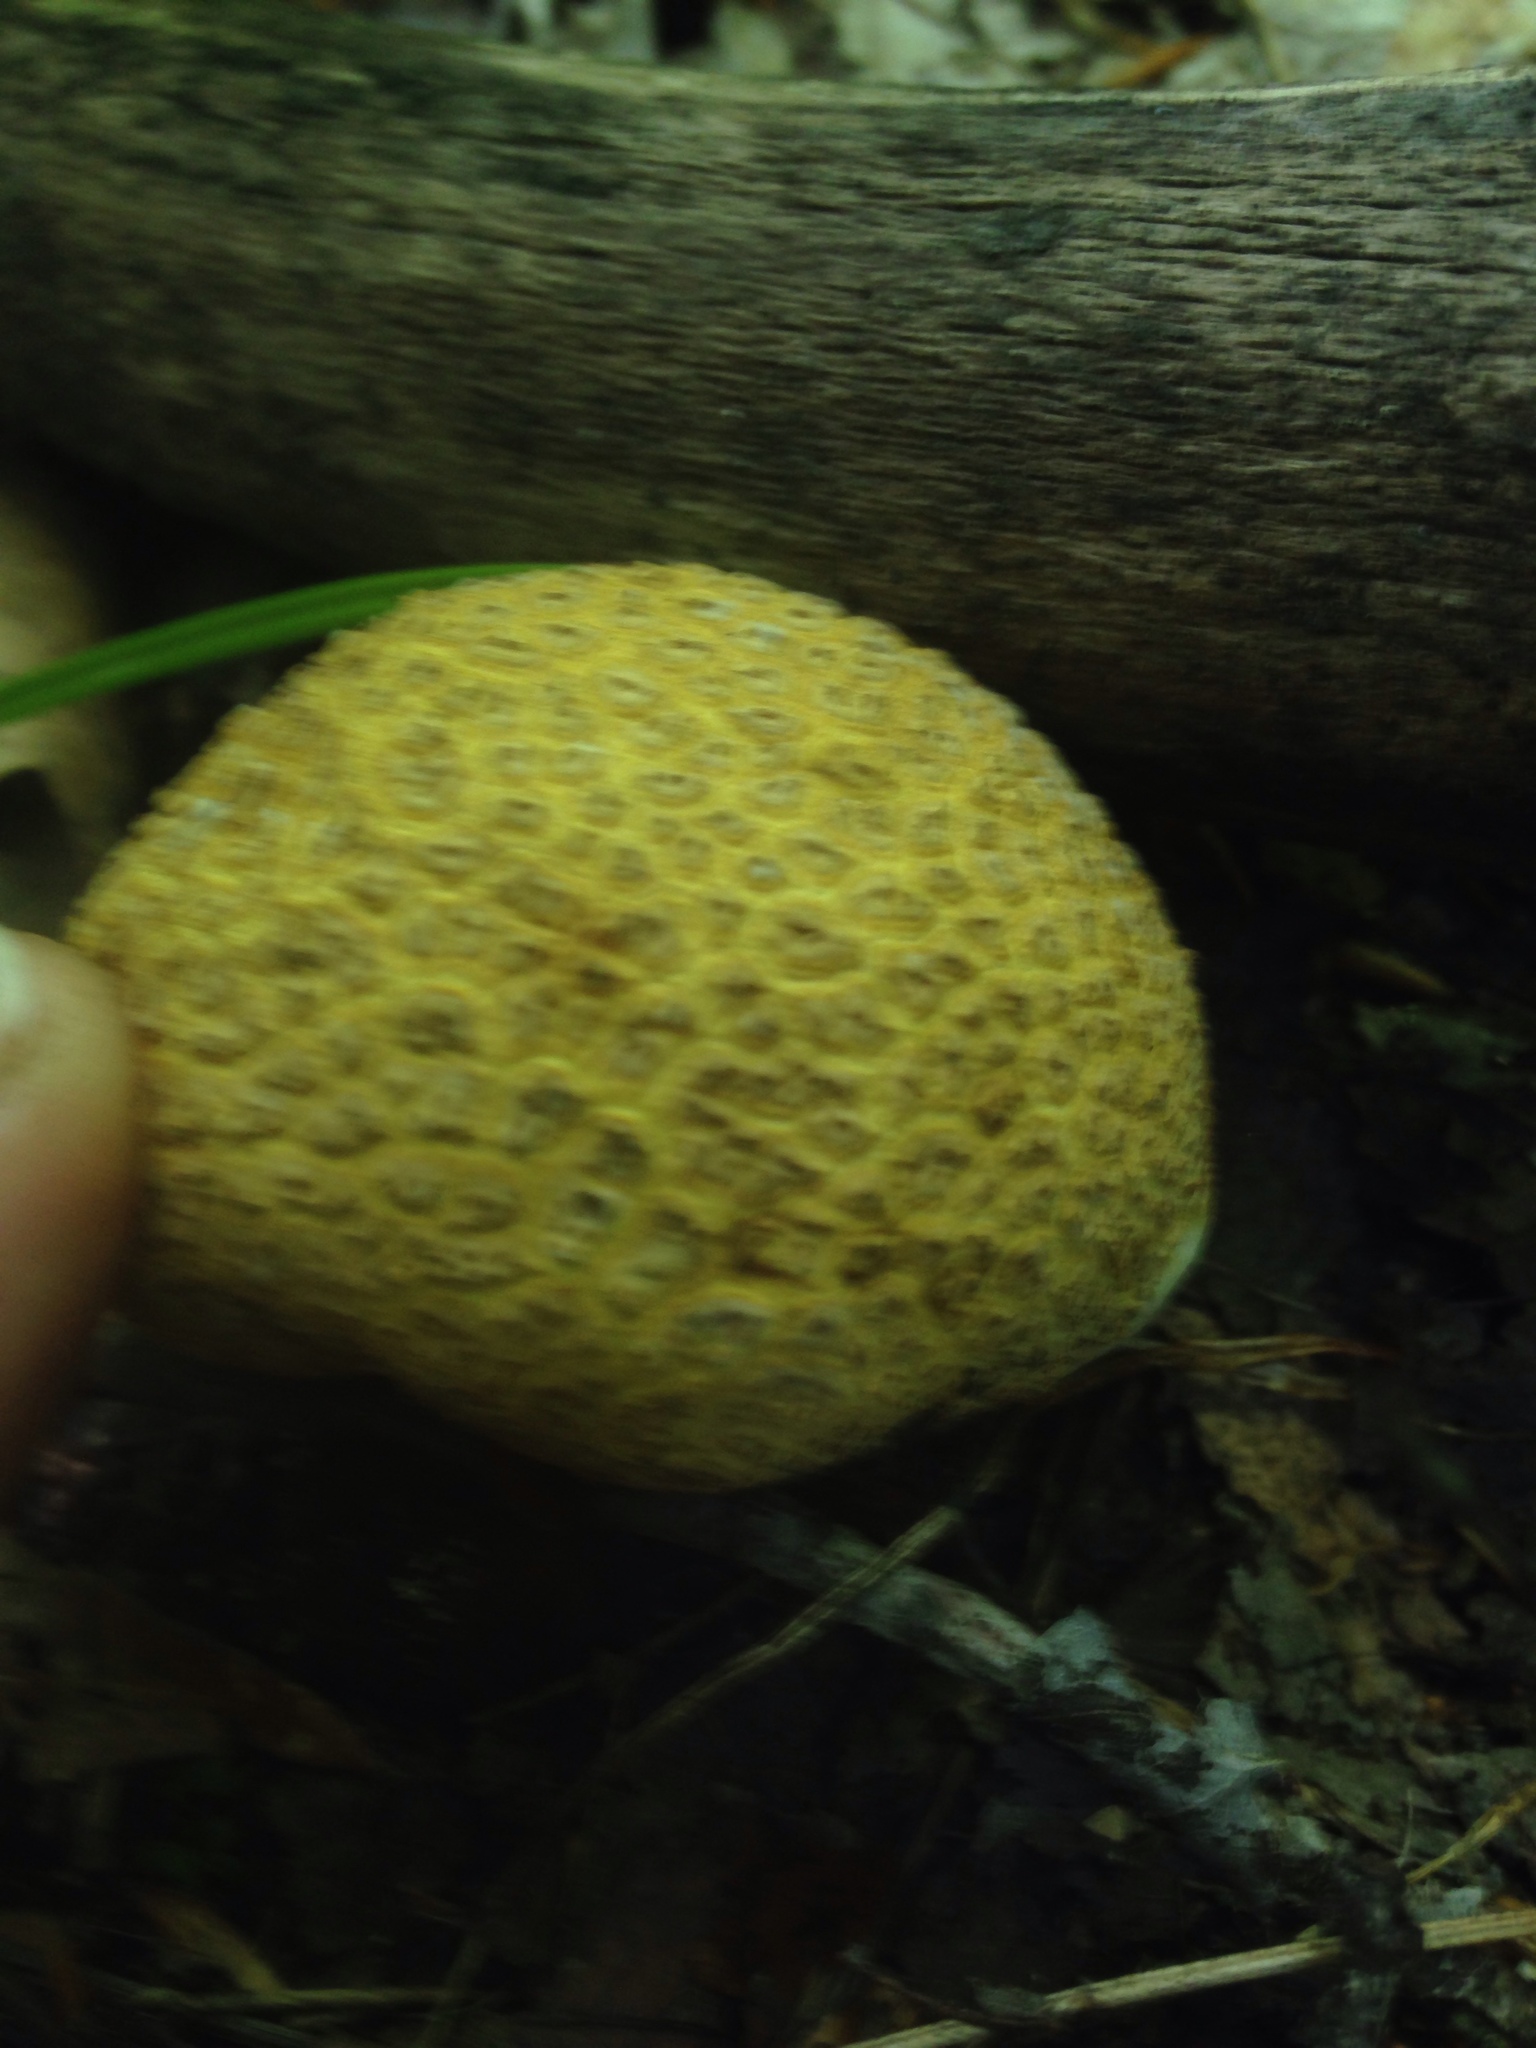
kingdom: Fungi
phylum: Basidiomycota
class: Agaricomycetes
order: Boletales
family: Sclerodermataceae
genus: Scleroderma
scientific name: Scleroderma citrinum
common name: Common earthball
